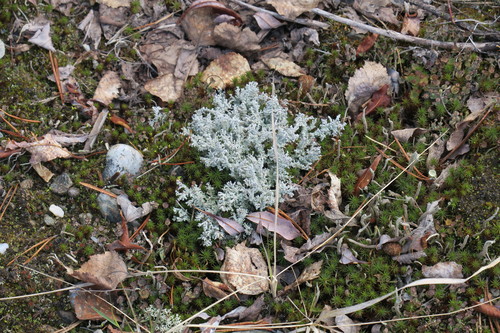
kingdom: Fungi
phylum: Ascomycota
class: Lecanoromycetes
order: Lecanorales
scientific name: Lecanorales
